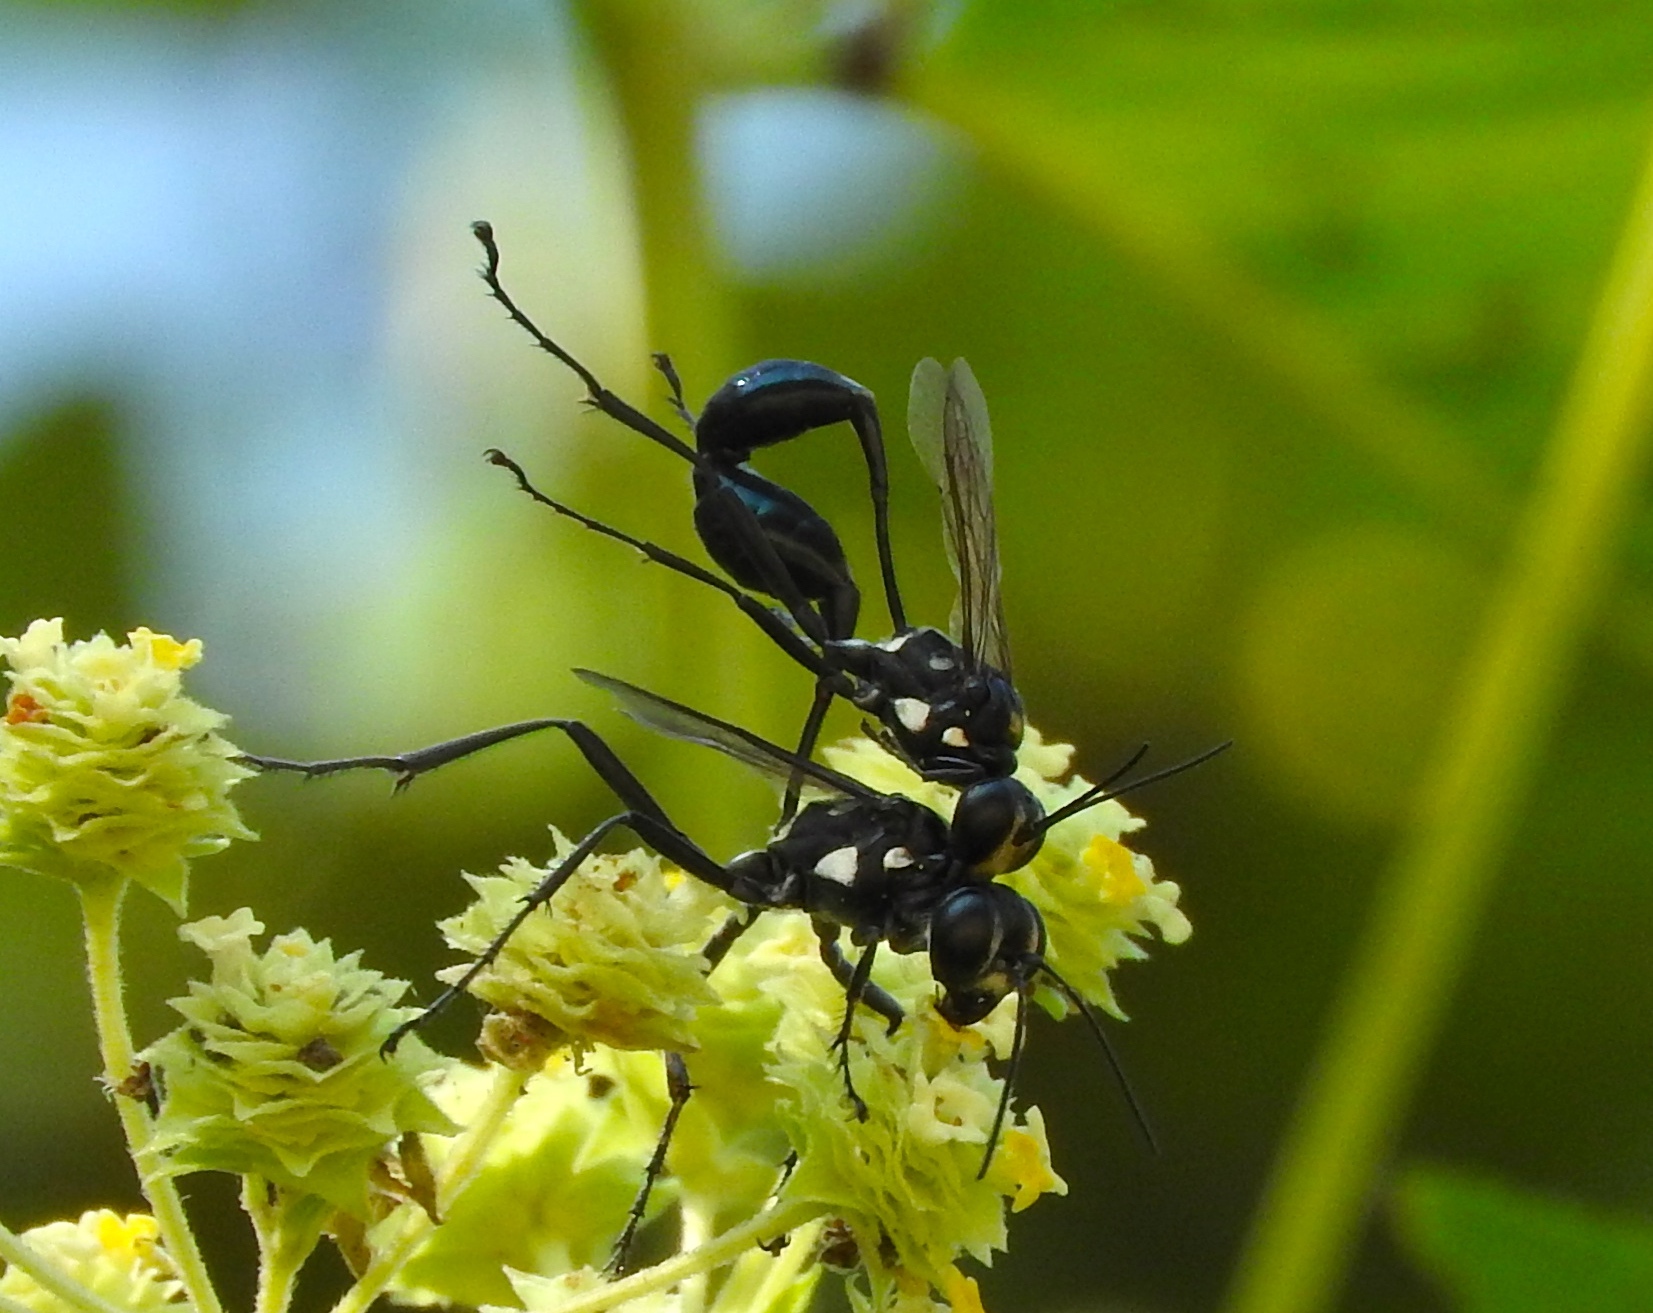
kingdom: Animalia
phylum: Arthropoda
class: Insecta
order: Hymenoptera
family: Sphecidae
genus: Eremnophila
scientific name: Eremnophila aureonotata
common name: Gold-marked thread-waisted wasp
